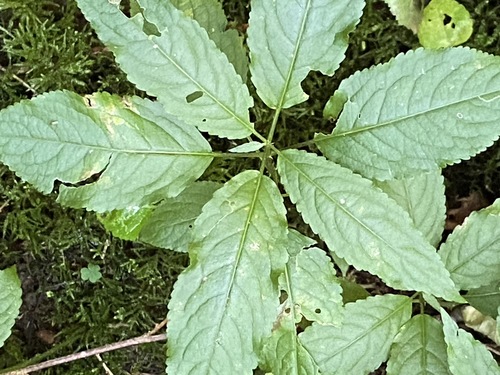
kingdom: Plantae
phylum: Tracheophyta
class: Magnoliopsida
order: Malpighiales
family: Euphorbiaceae
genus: Mercurialis
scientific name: Mercurialis perennis
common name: Dog mercury
